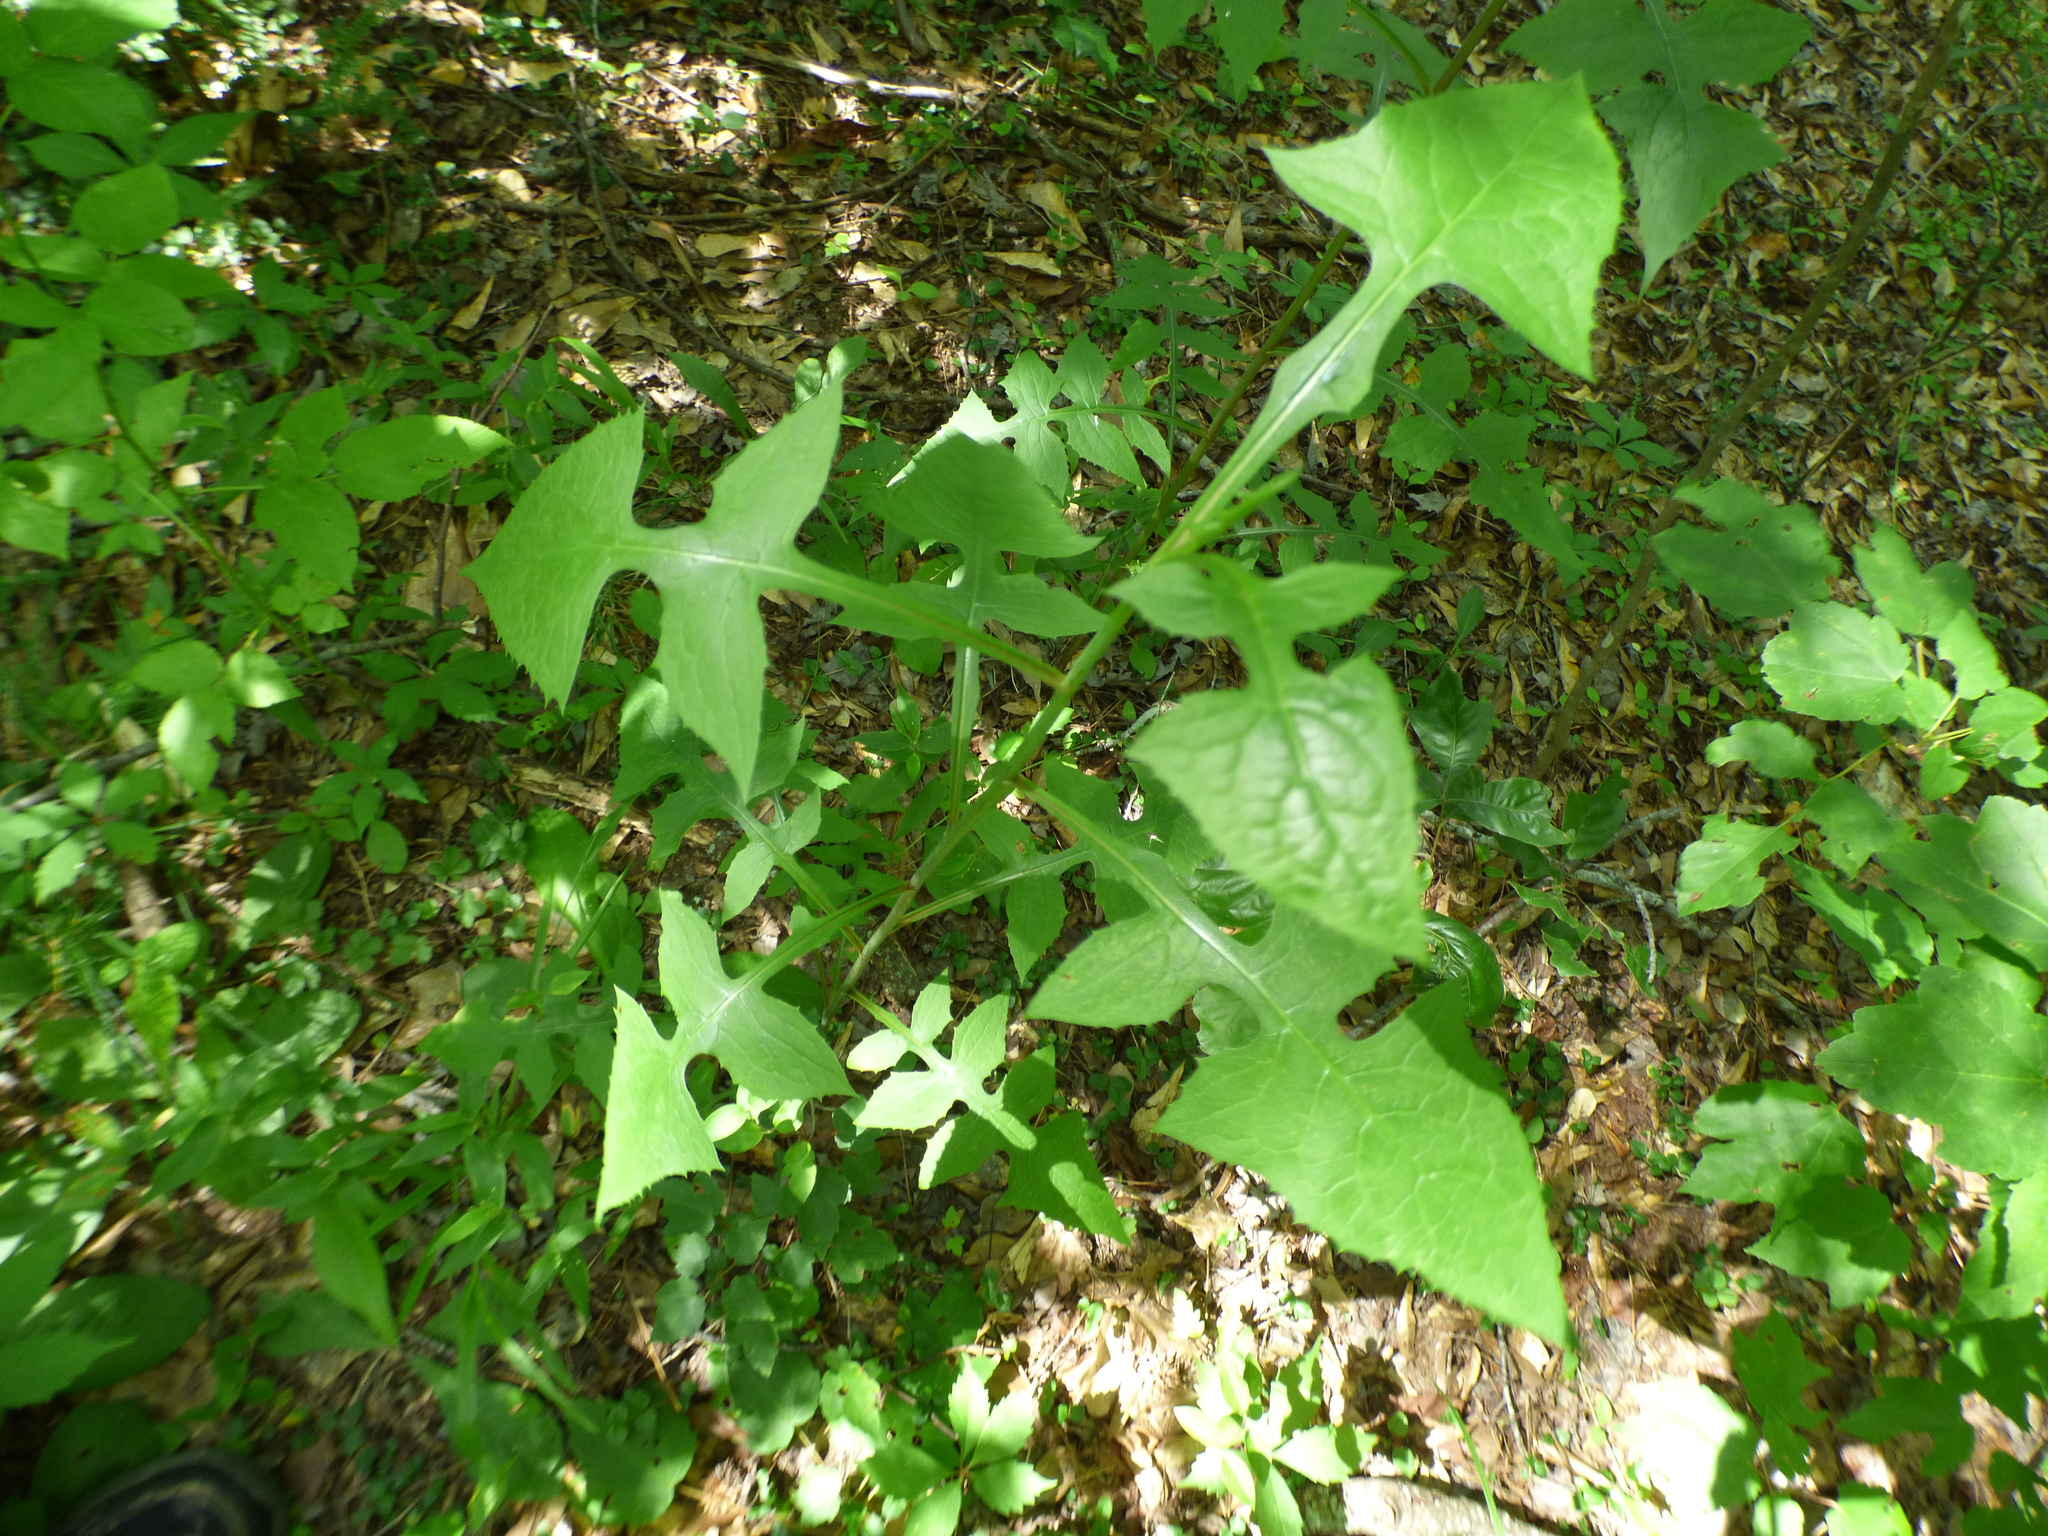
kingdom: Plantae
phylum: Tracheophyta
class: Magnoliopsida
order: Asterales
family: Asteraceae
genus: Lactuca
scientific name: Lactuca floridana
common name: Woodland lettuce
